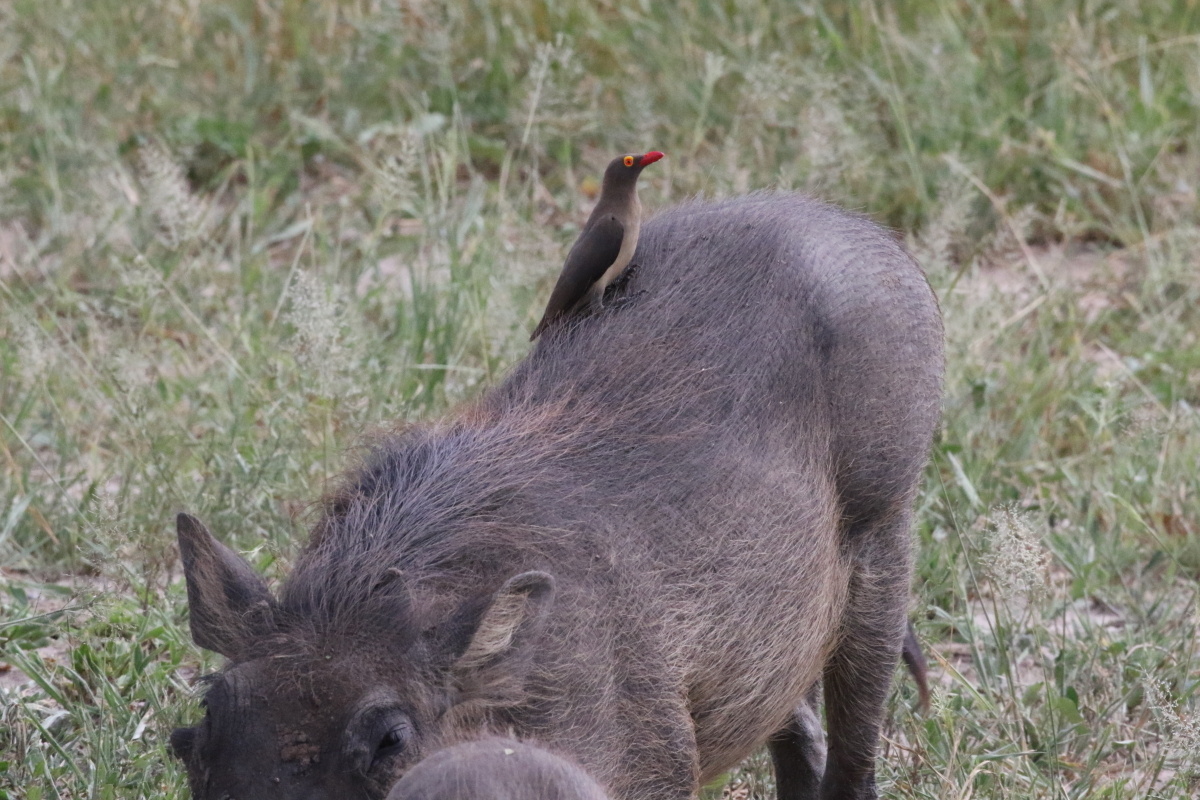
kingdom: Animalia
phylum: Chordata
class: Aves
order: Passeriformes
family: Buphagidae
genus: Buphagus
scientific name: Buphagus erythrorhynchus
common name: Red-billed oxpecker
